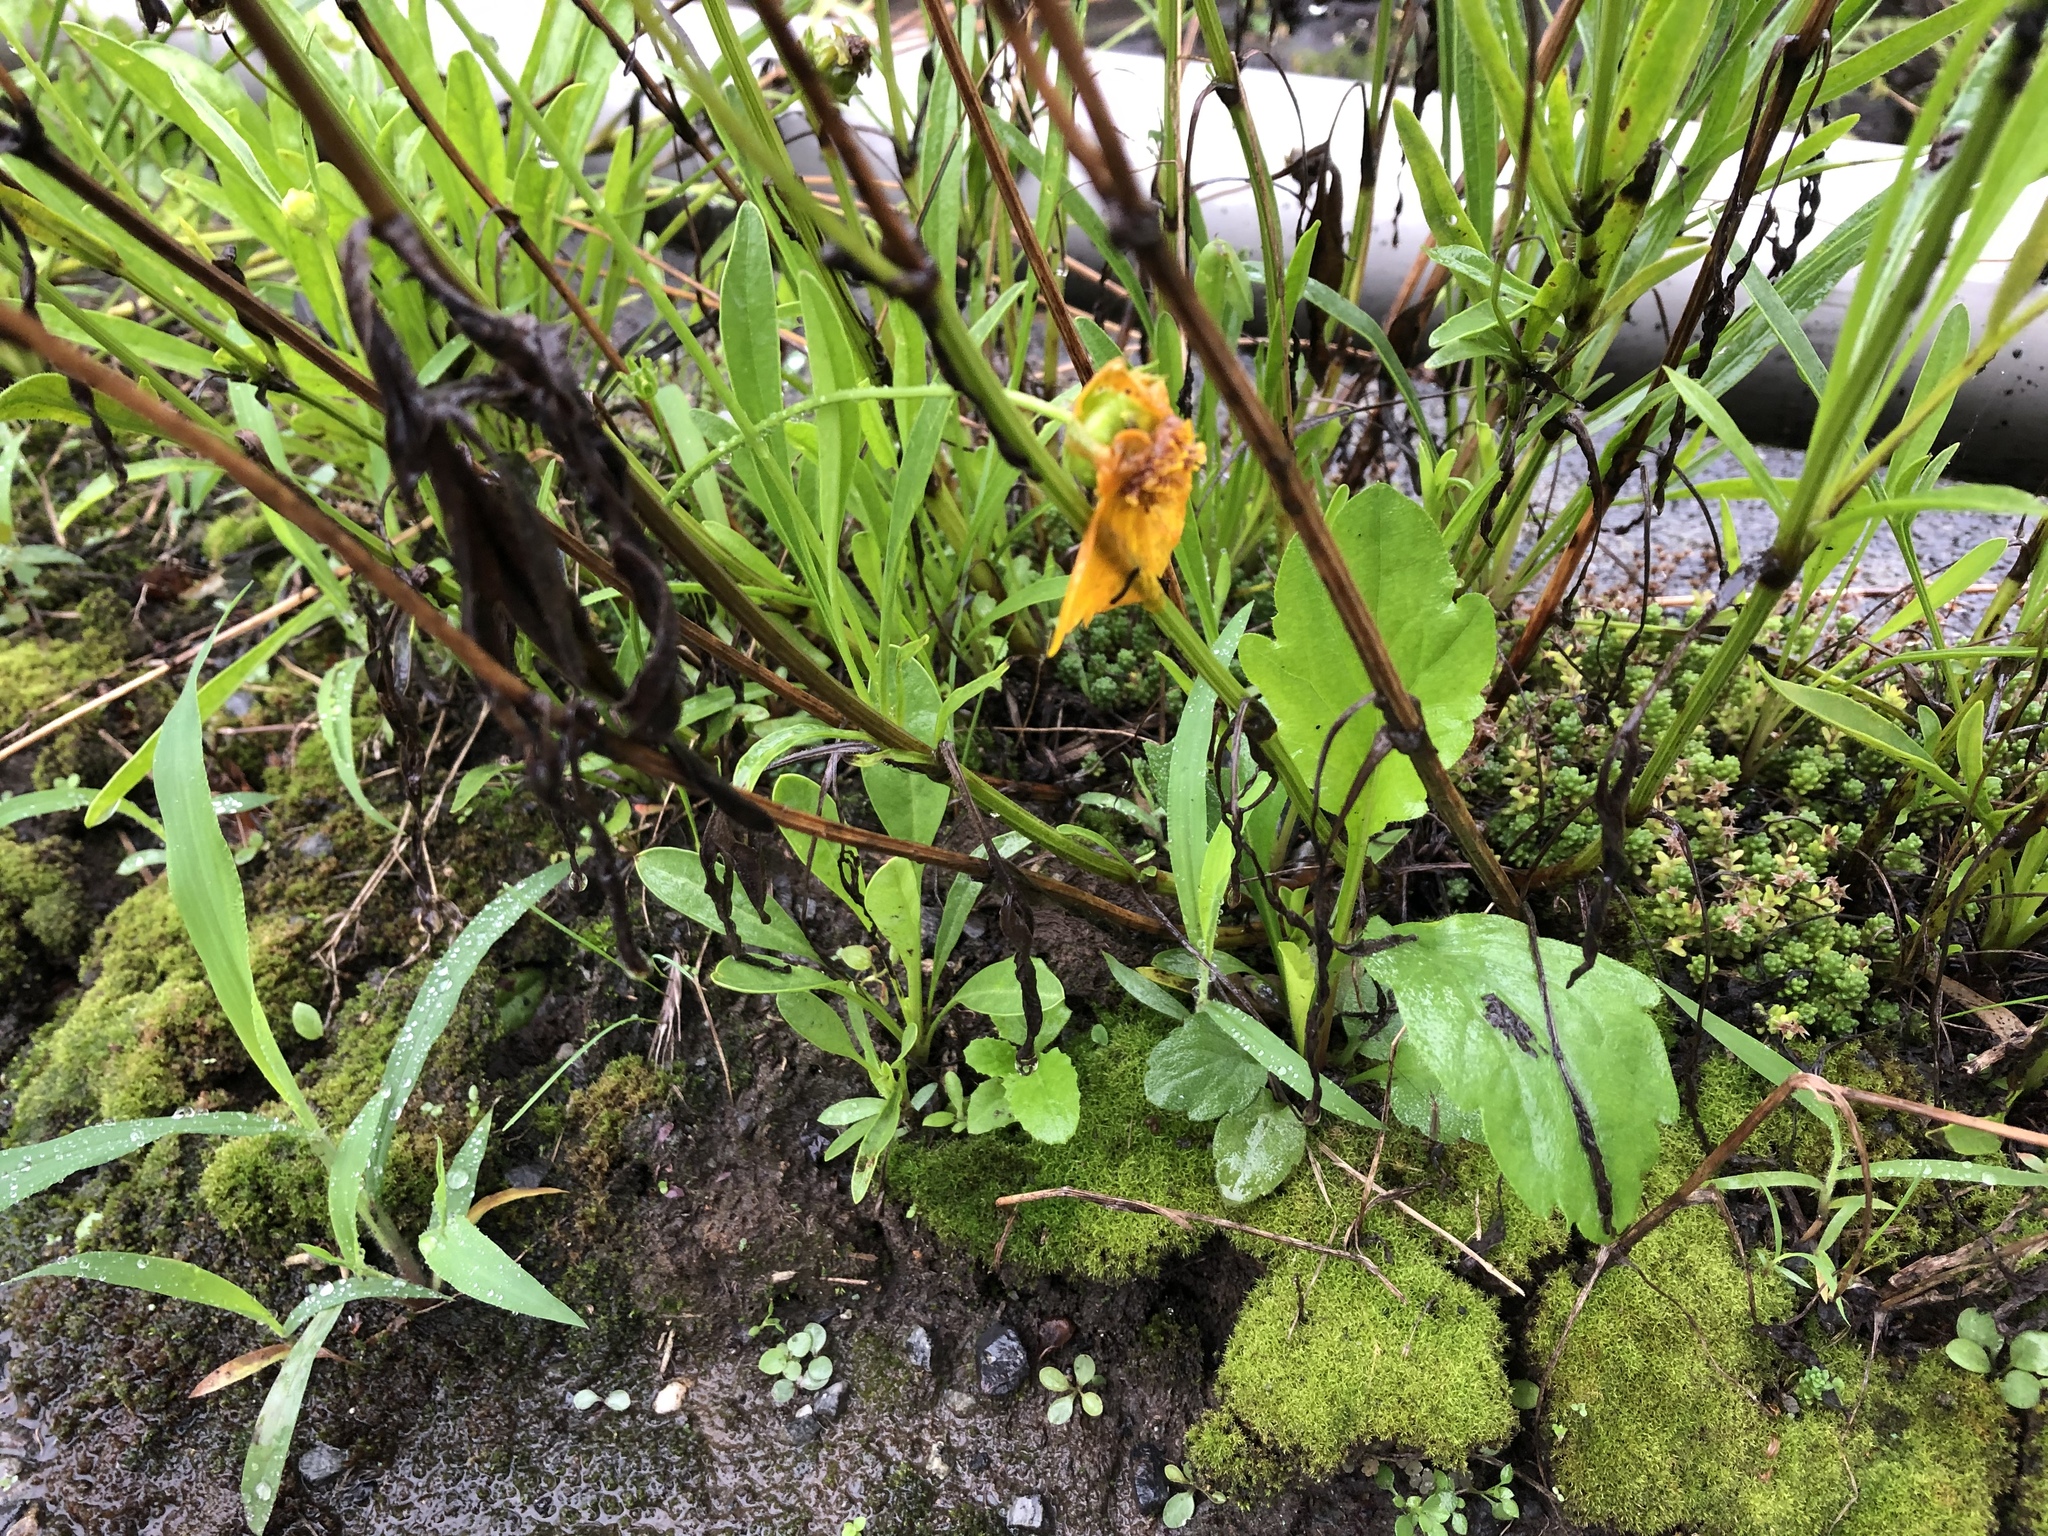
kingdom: Plantae
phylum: Tracheophyta
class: Magnoliopsida
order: Asterales
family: Asteraceae
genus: Coreopsis
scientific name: Coreopsis lanceolata
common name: Garden coreopsis
